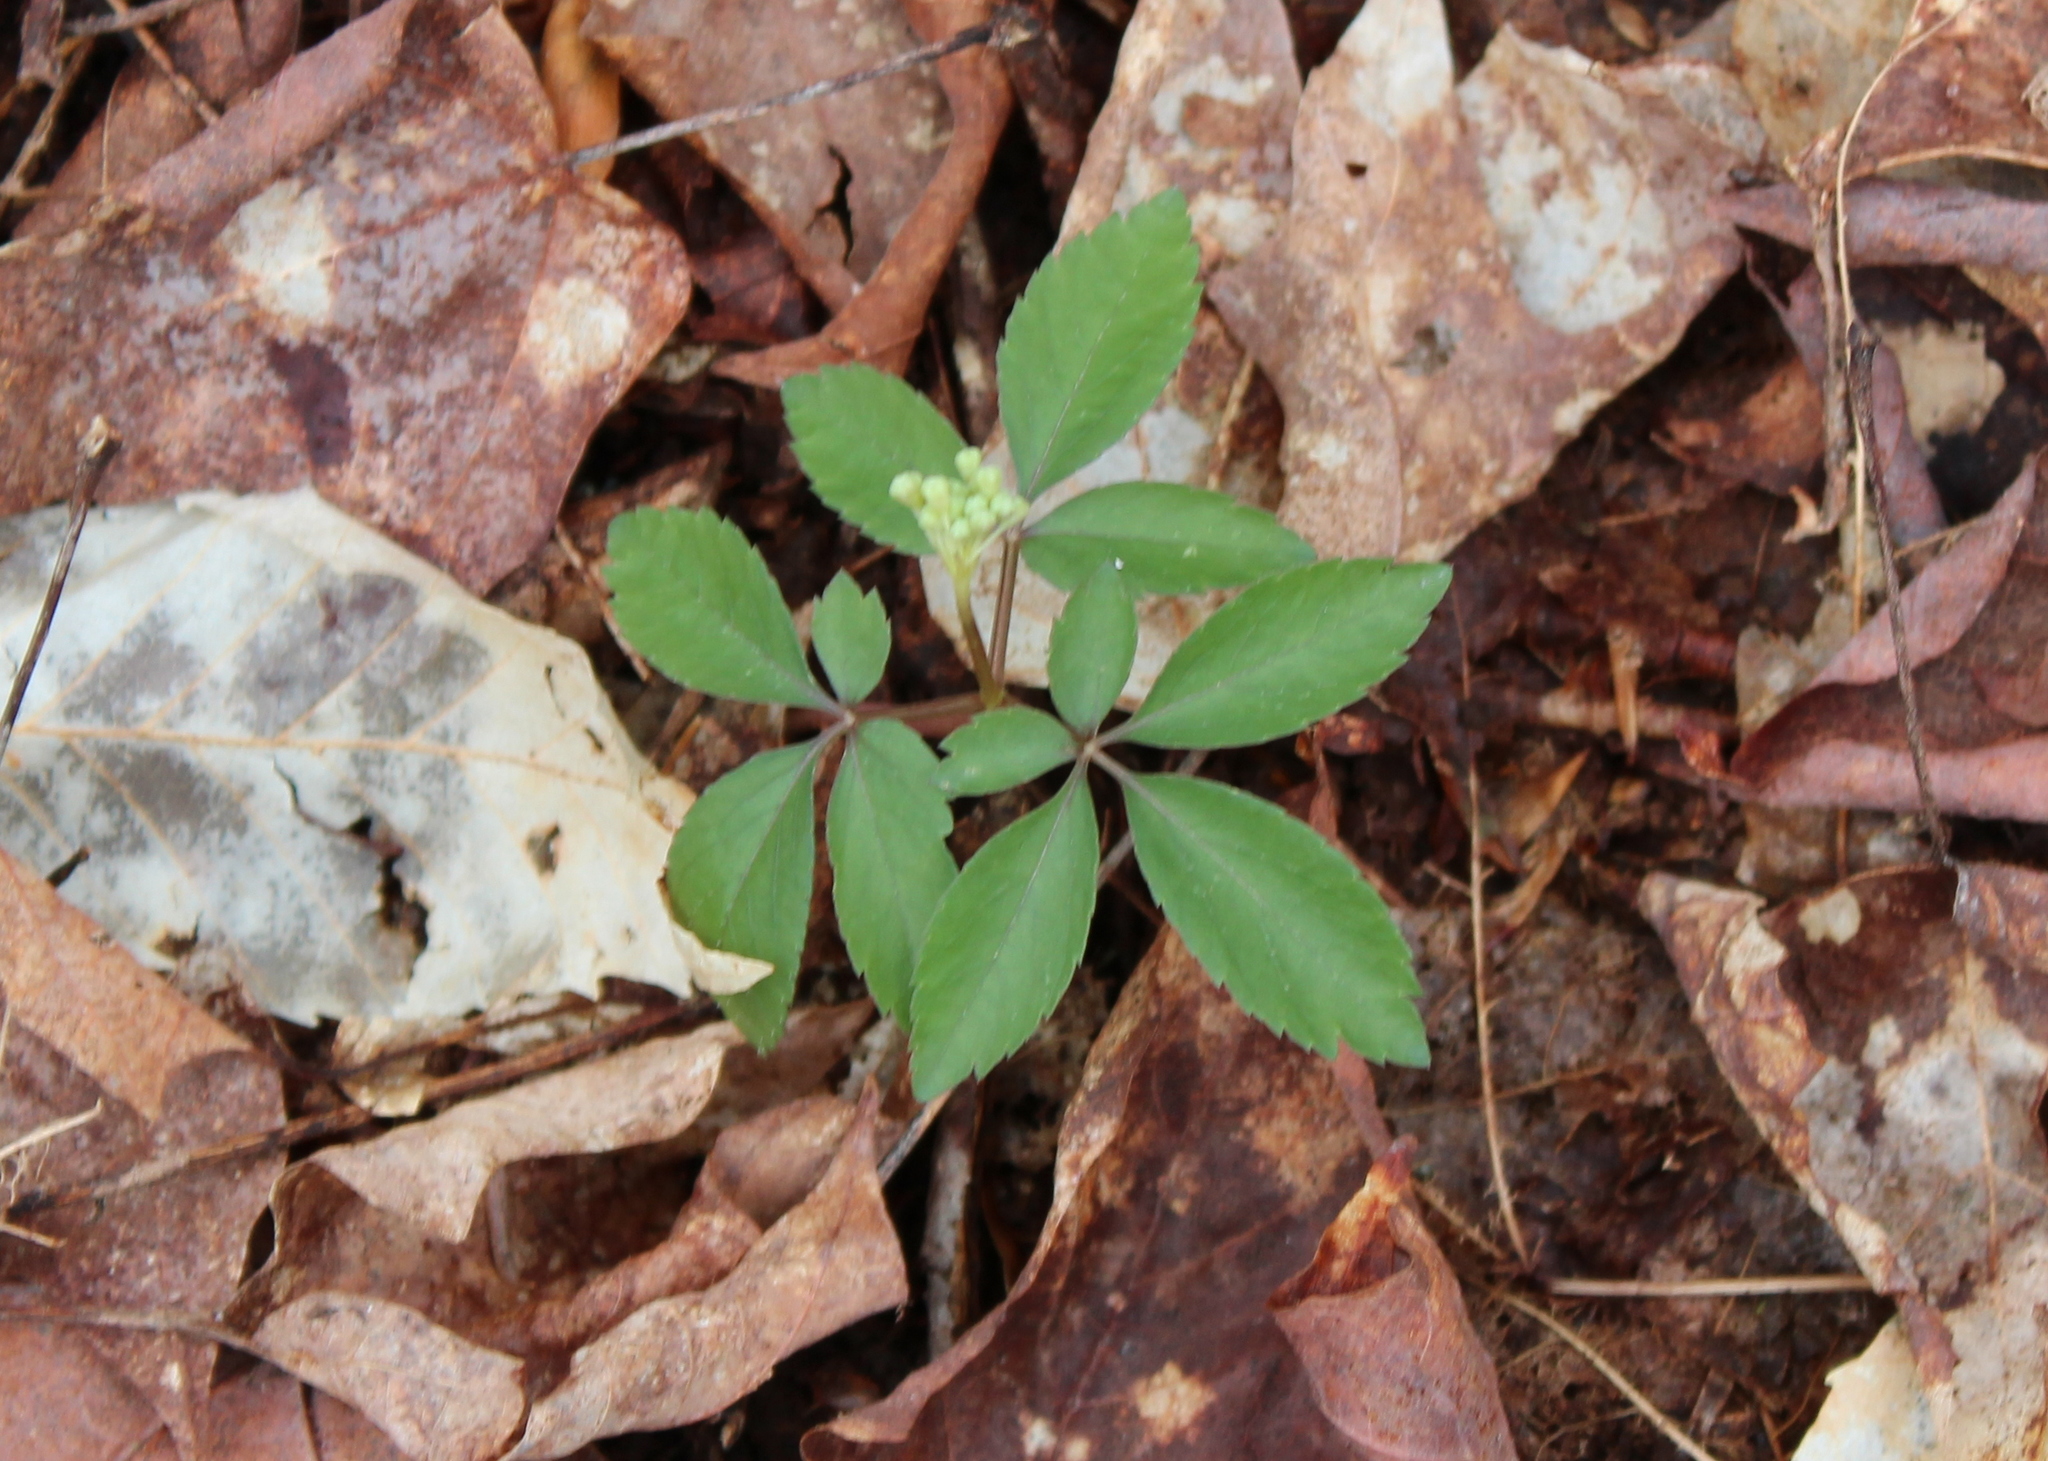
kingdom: Plantae
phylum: Tracheophyta
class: Magnoliopsida
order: Apiales
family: Araliaceae
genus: Panax
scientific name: Panax trifolius
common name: Dwarf ginseng
